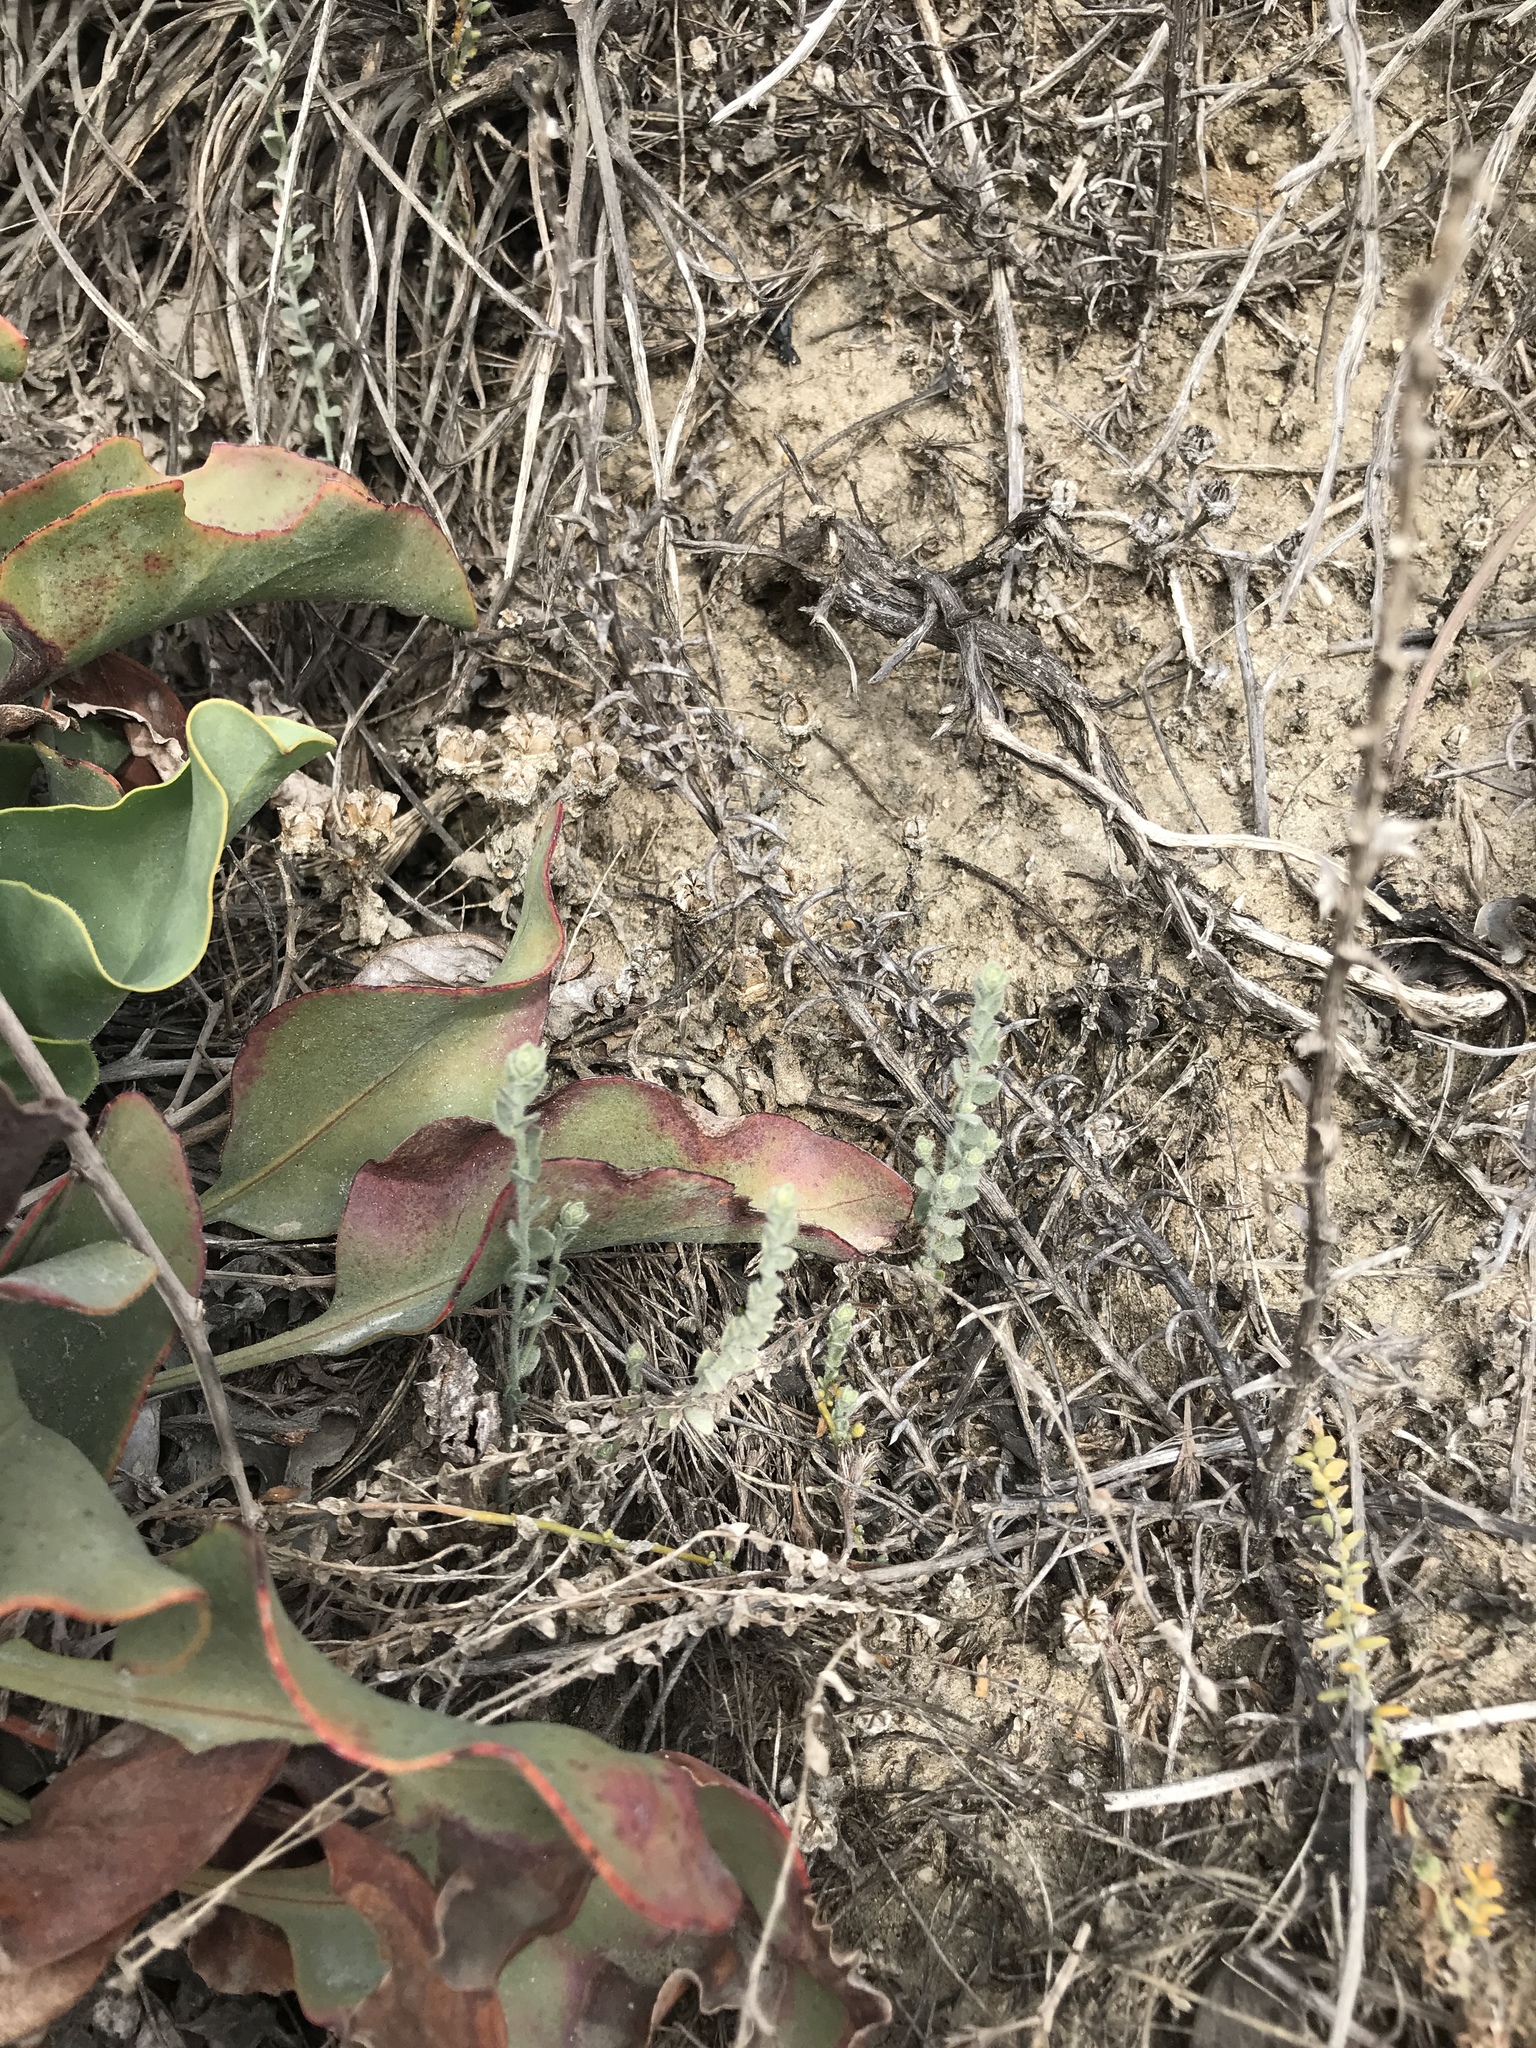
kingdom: Plantae
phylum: Tracheophyta
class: Magnoliopsida
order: Solanales
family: Convolvulaceae
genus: Cressa
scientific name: Cressa truxillensis
